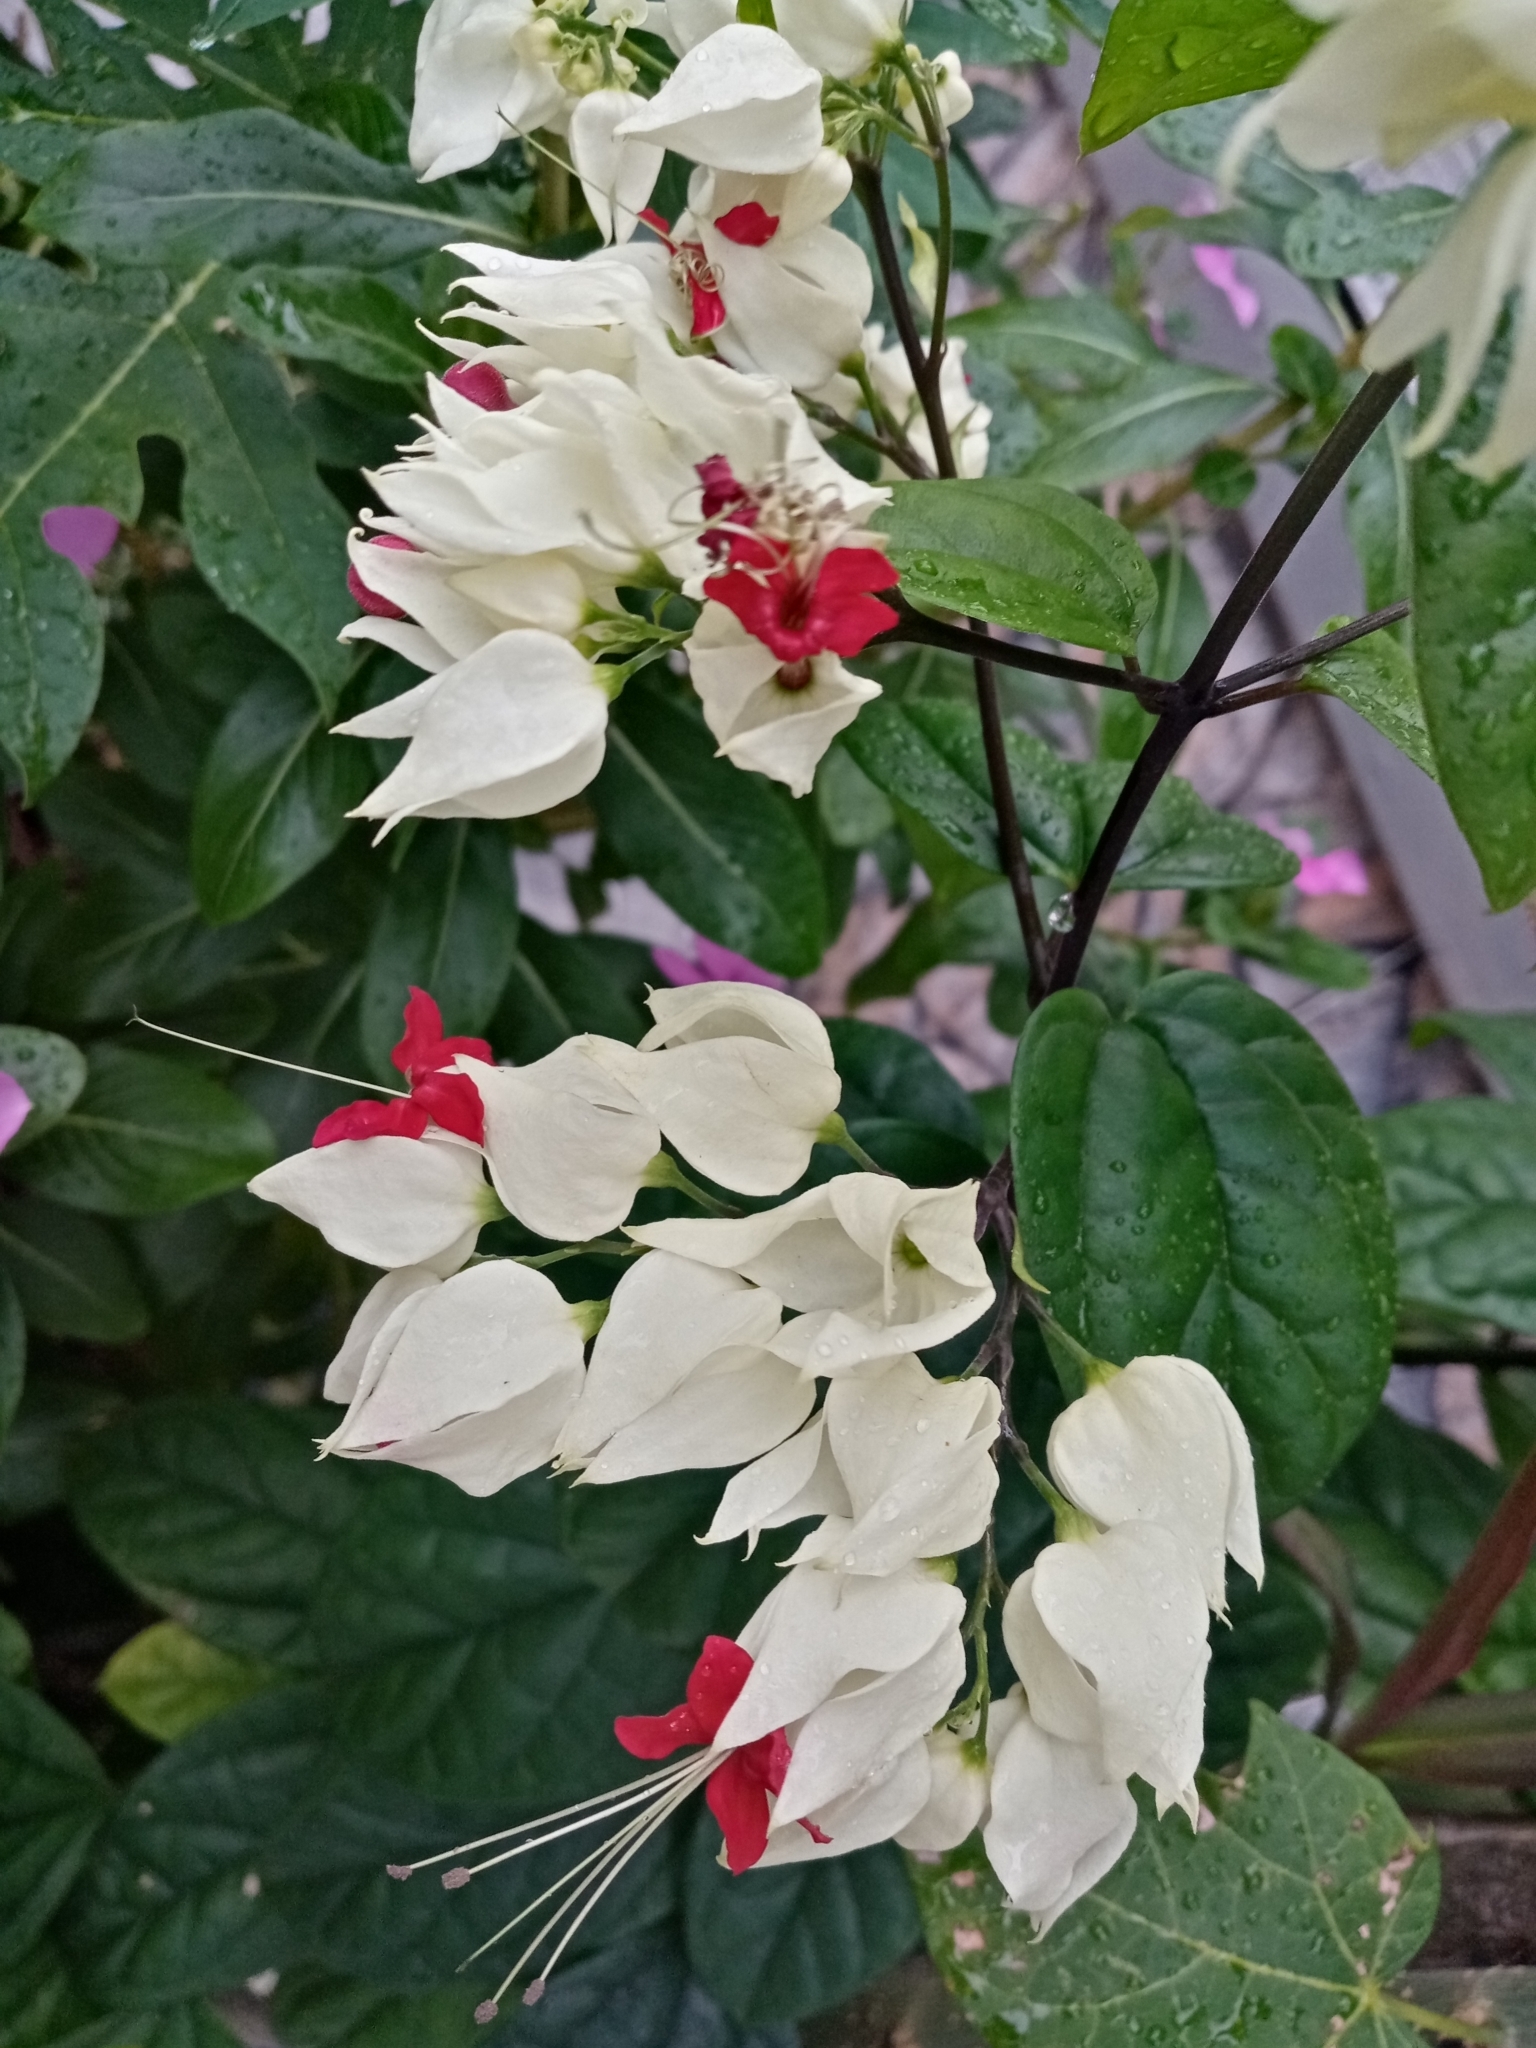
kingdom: Plantae
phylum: Tracheophyta
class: Magnoliopsida
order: Lamiales
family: Lamiaceae
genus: Clerodendrum
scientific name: Clerodendrum thomsoniae
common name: Bagflower
